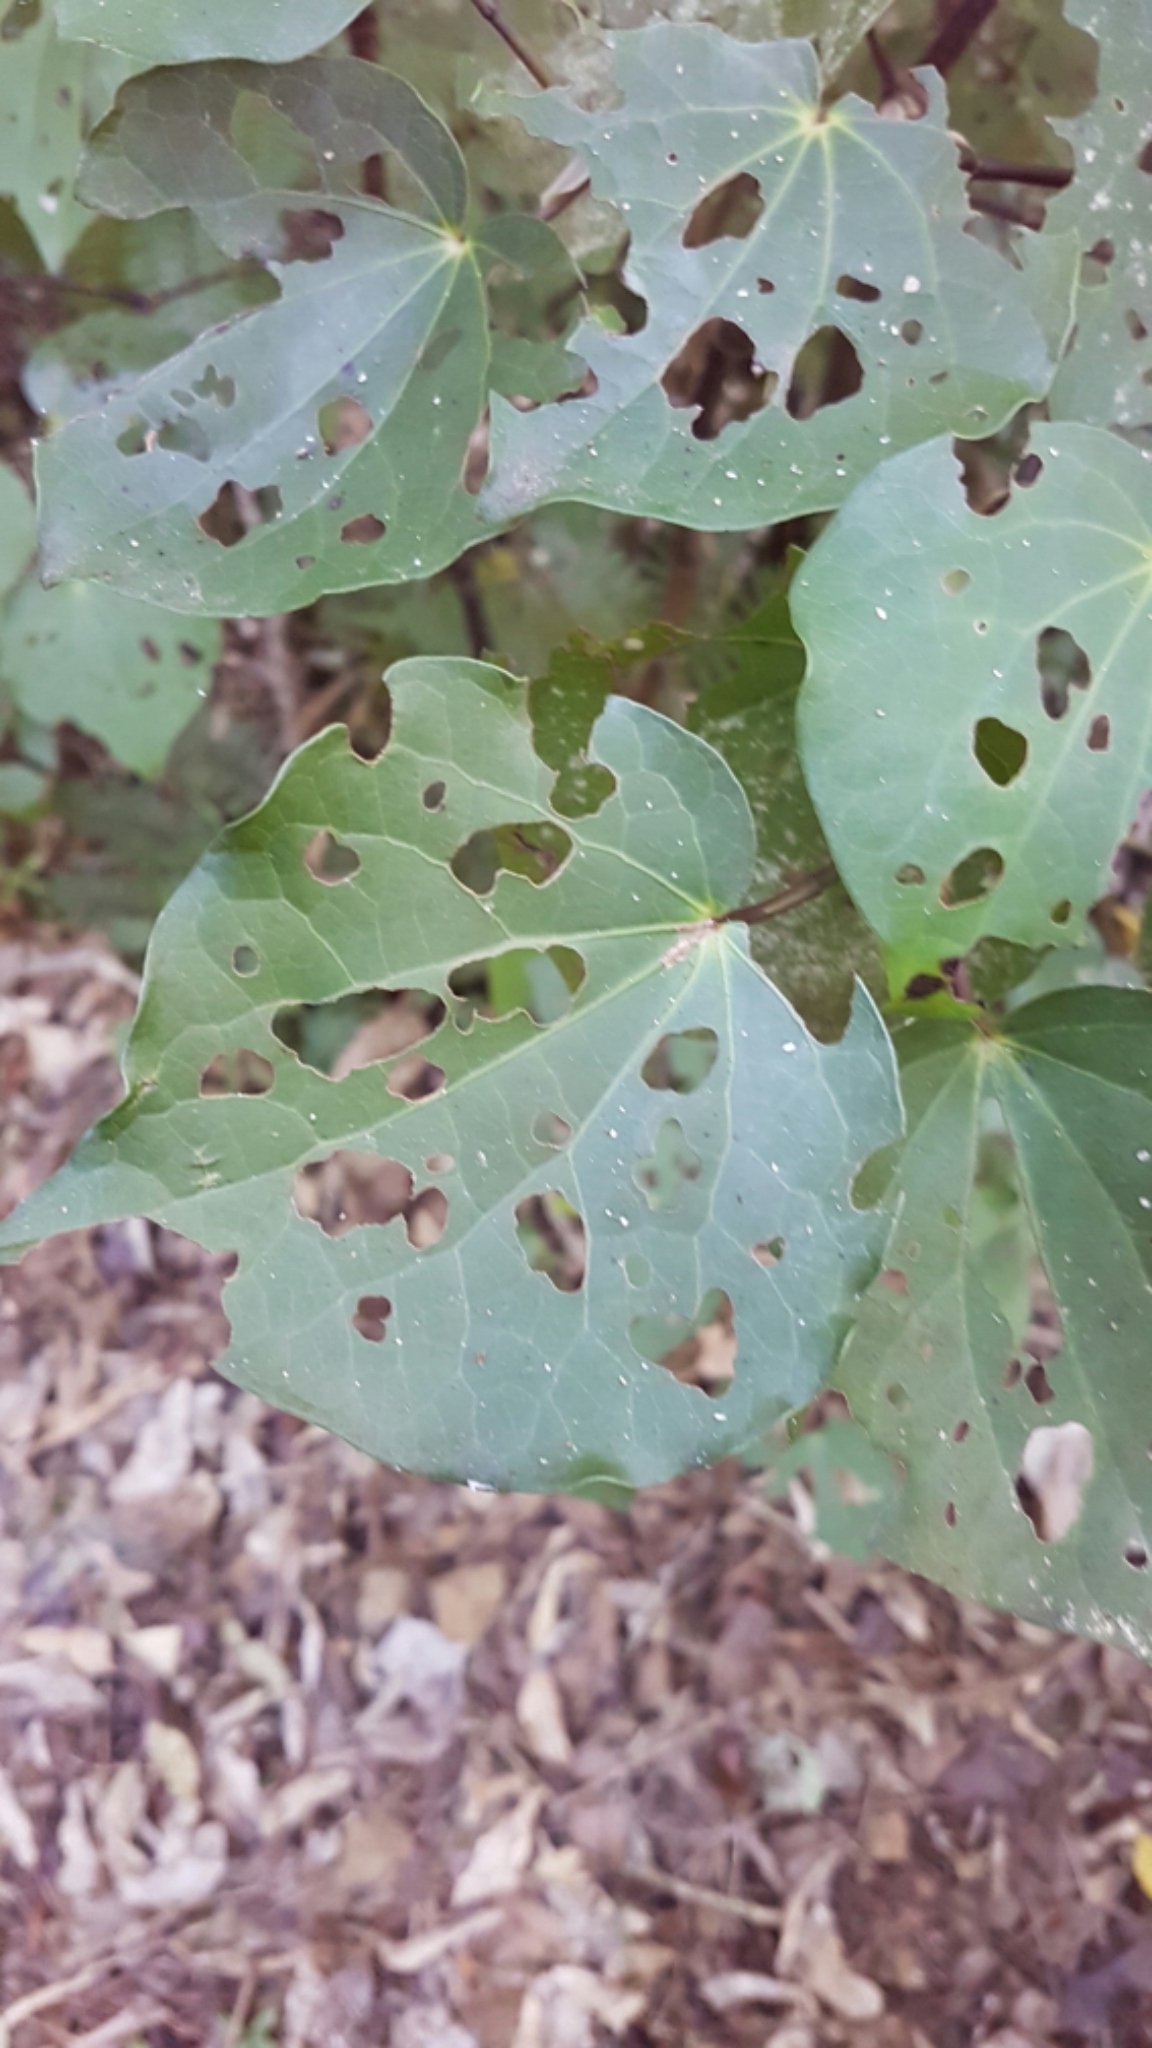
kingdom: Plantae
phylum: Tracheophyta
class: Magnoliopsida
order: Piperales
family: Piperaceae
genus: Macropiper
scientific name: Macropiper excelsum
